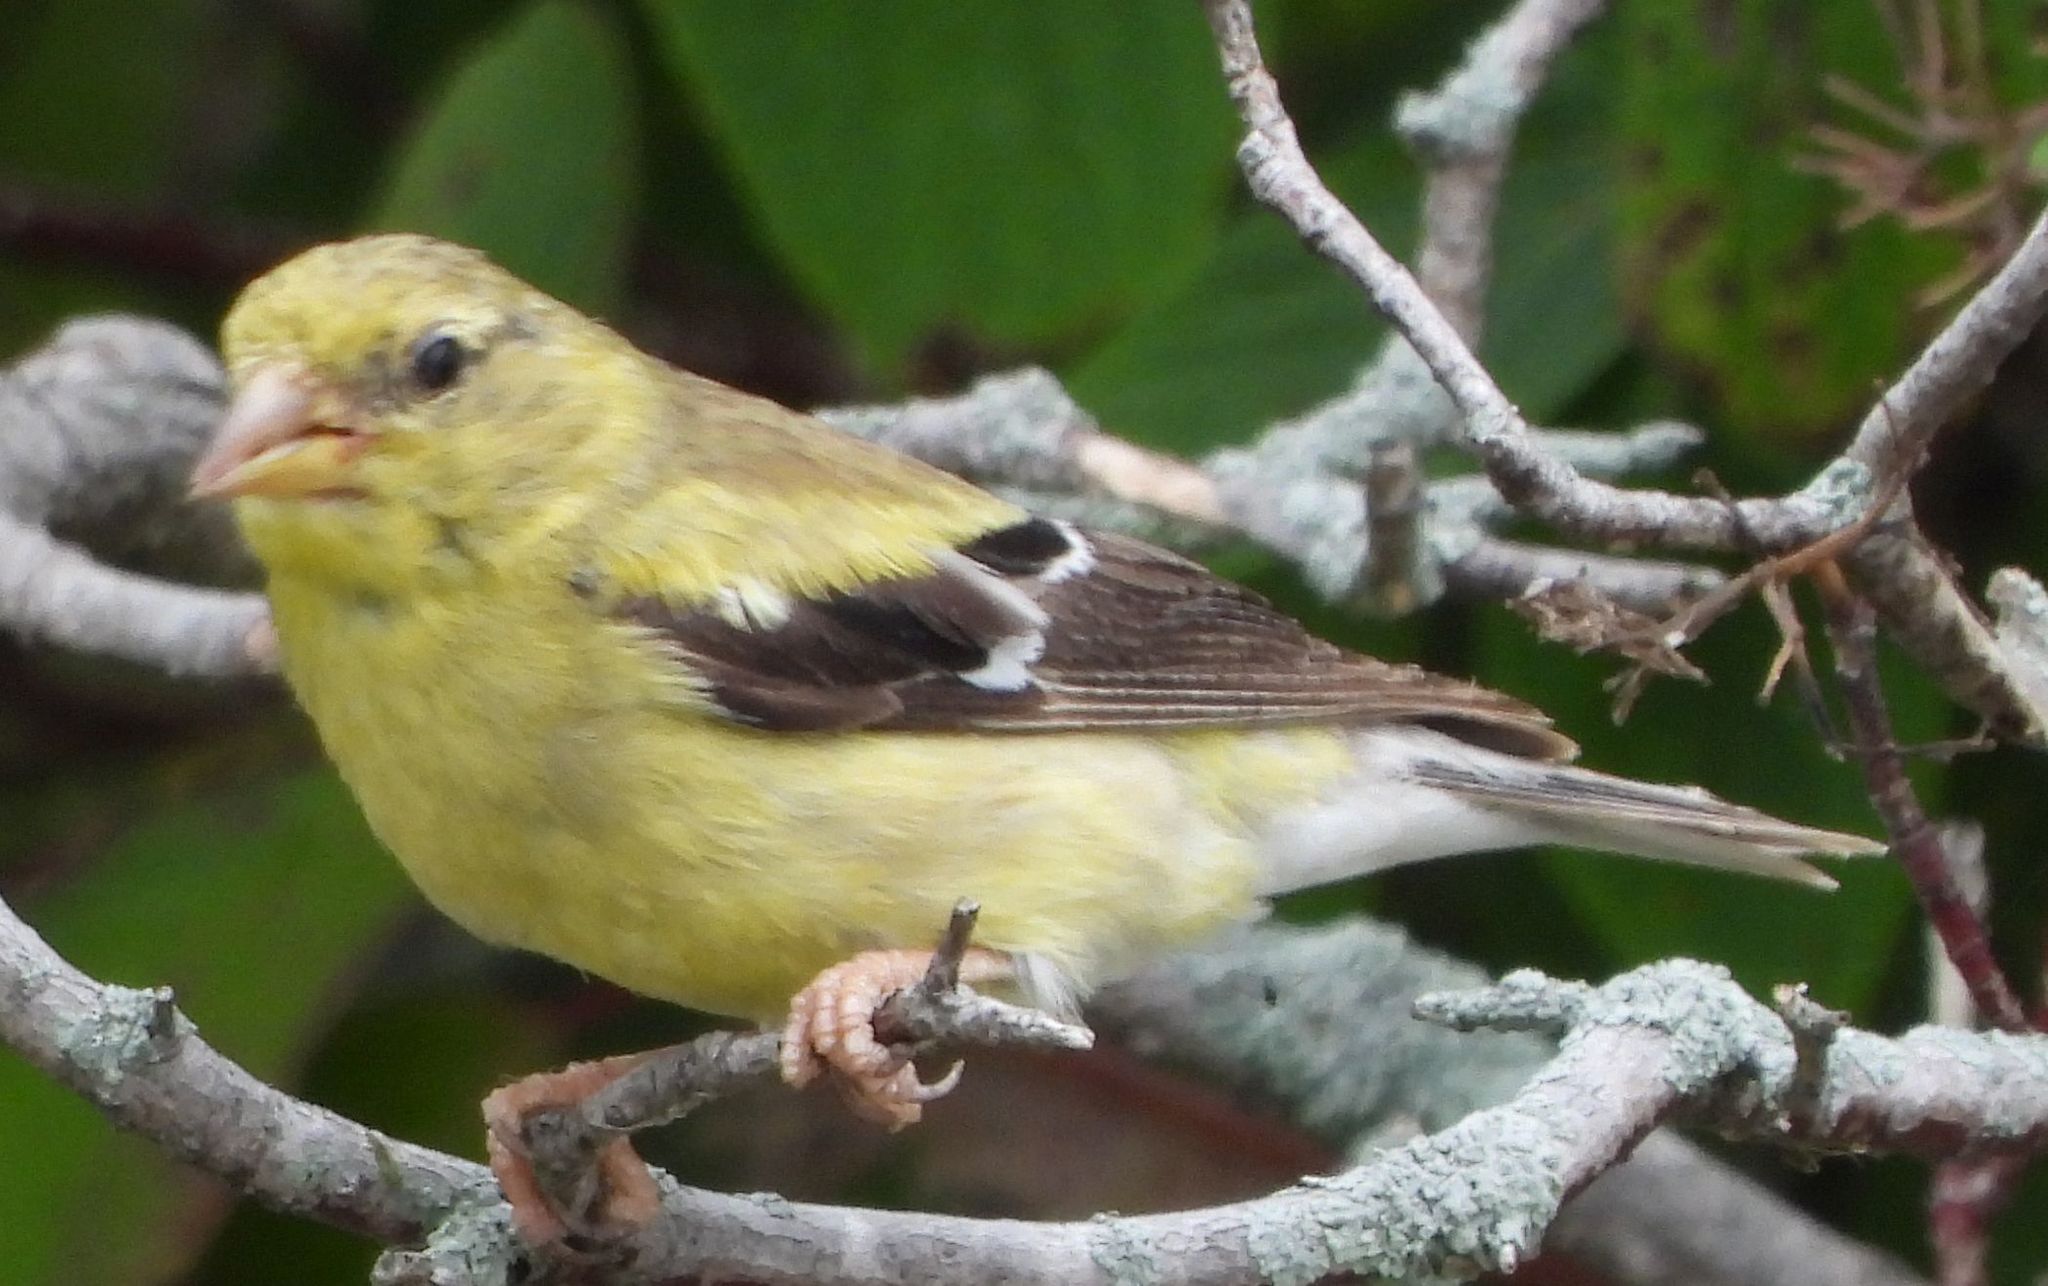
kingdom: Animalia
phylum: Chordata
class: Aves
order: Passeriformes
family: Fringillidae
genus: Spinus
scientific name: Spinus tristis
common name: American goldfinch
